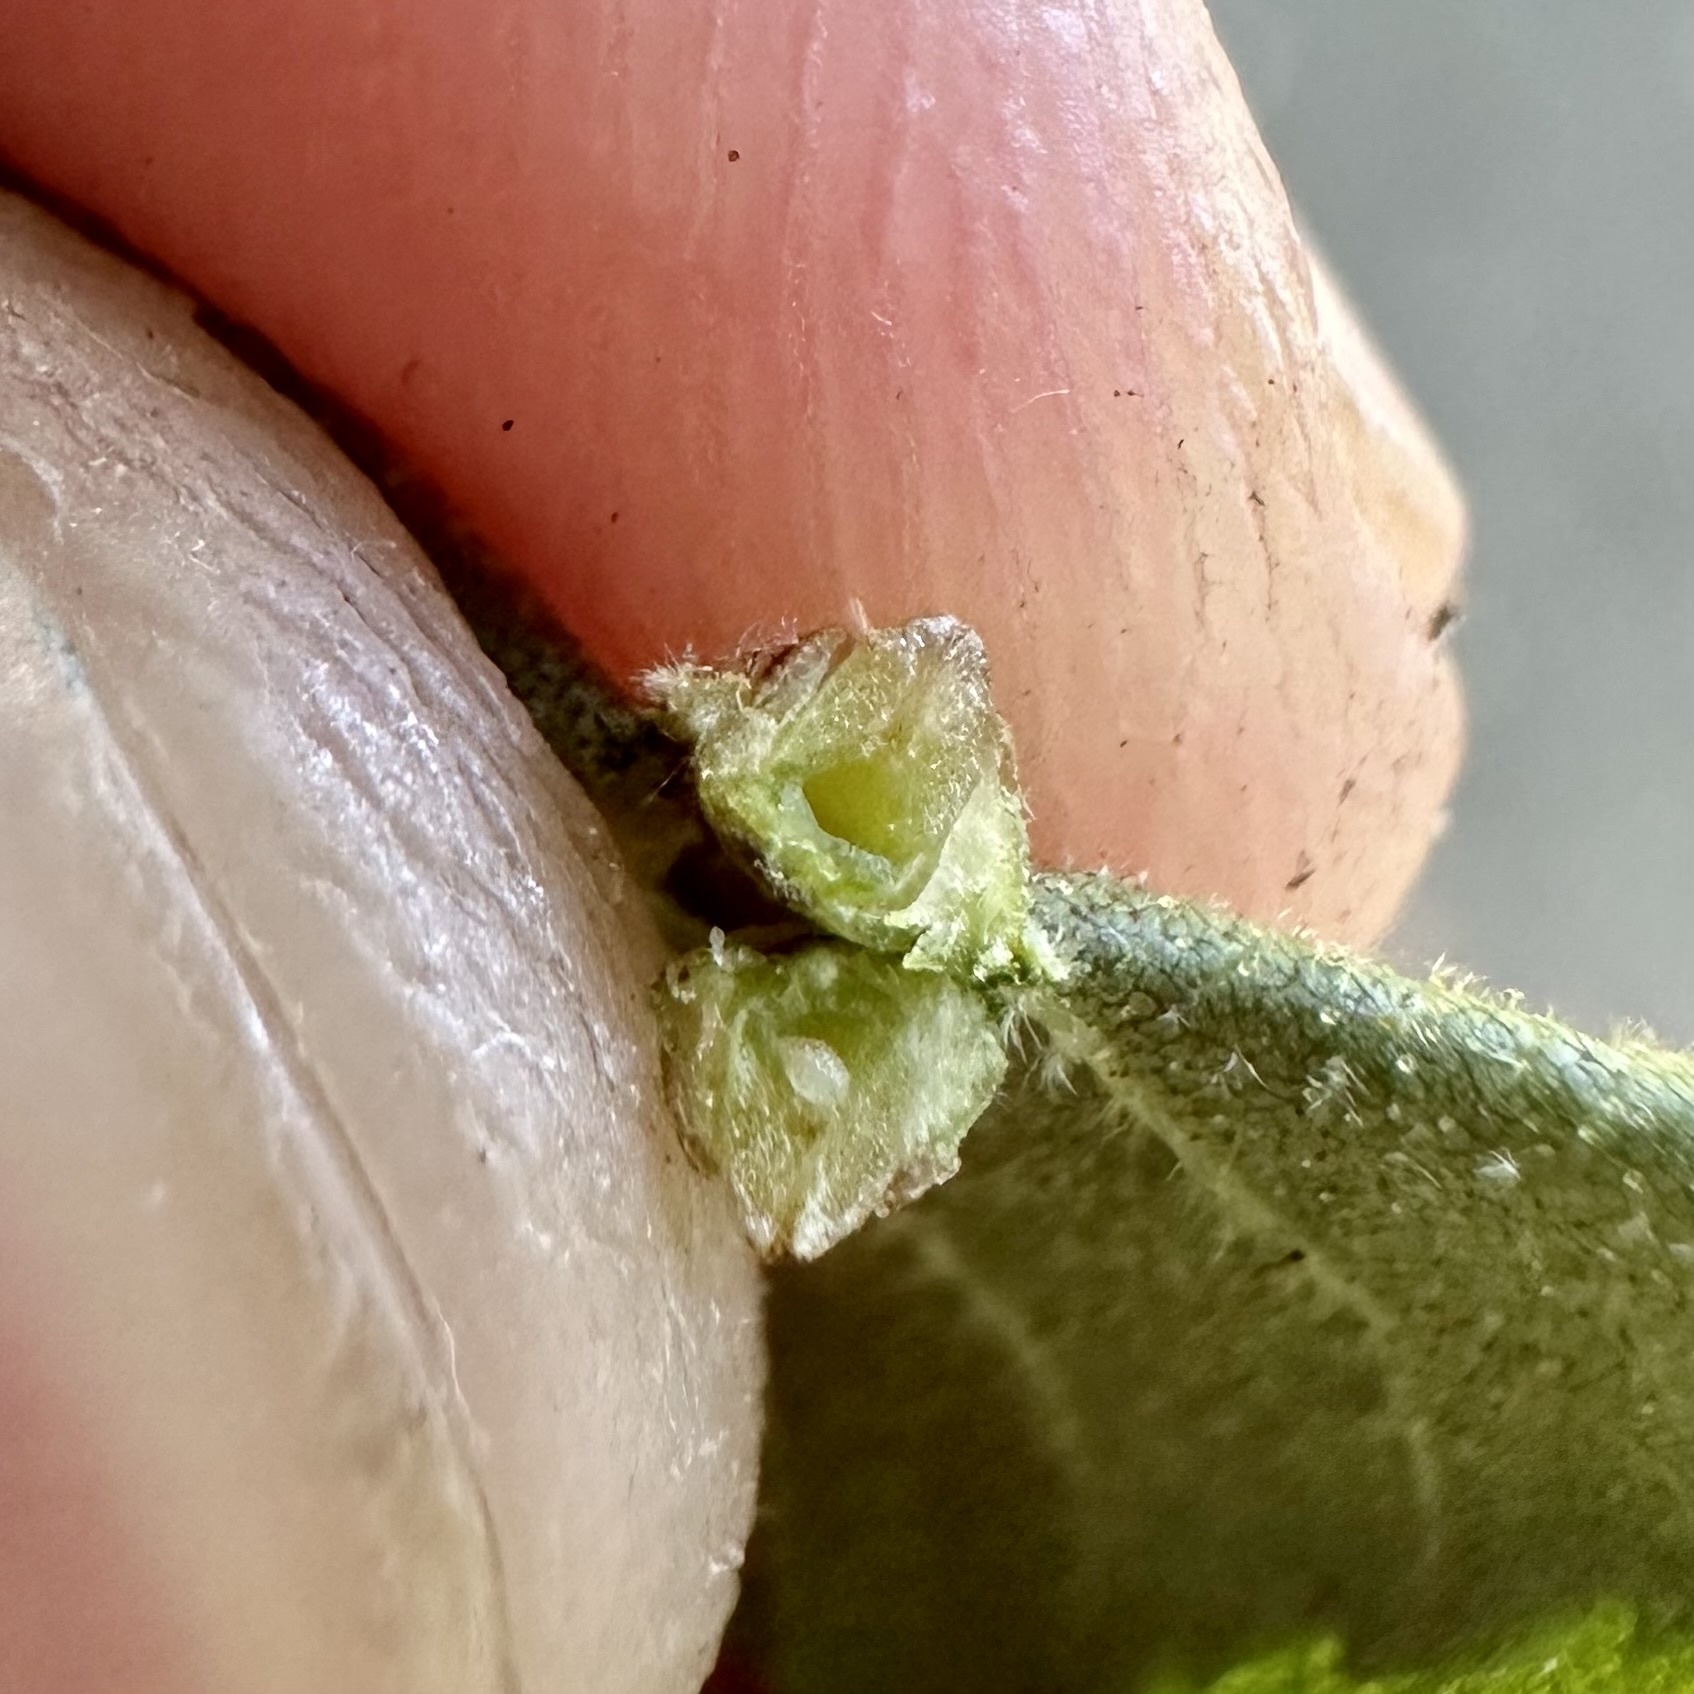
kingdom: Animalia
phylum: Arthropoda
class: Insecta
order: Diptera
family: Cecidomyiidae
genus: Caryomyia
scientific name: Caryomyia tubicola
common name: Hickory bullet gall midge
